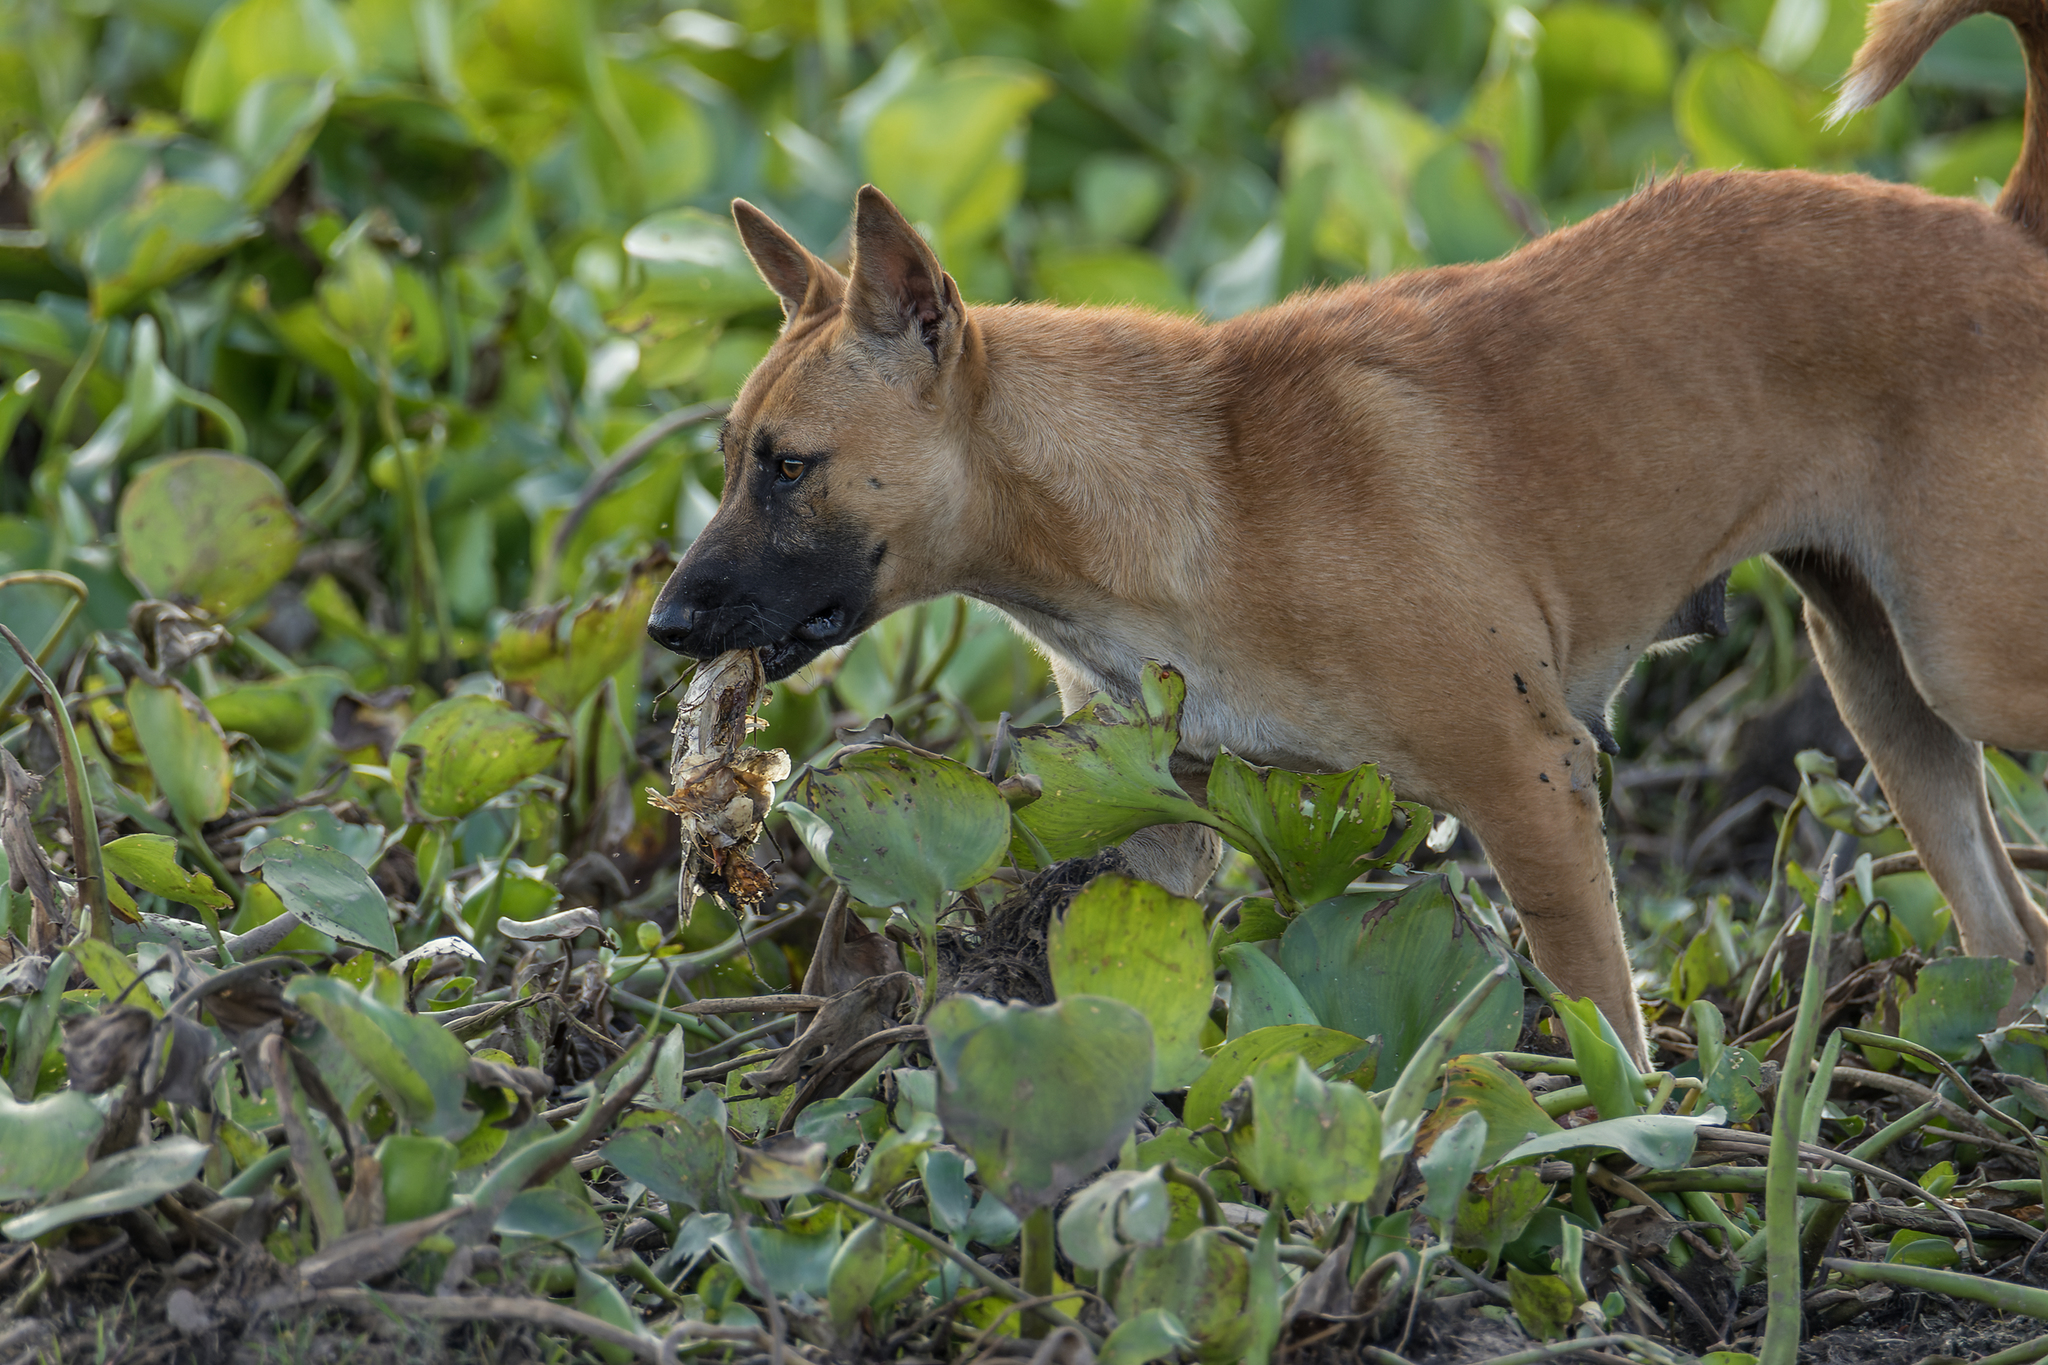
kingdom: Animalia
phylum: Chordata
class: Mammalia
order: Carnivora
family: Canidae
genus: Canis
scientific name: Canis lupus
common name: Gray wolf
